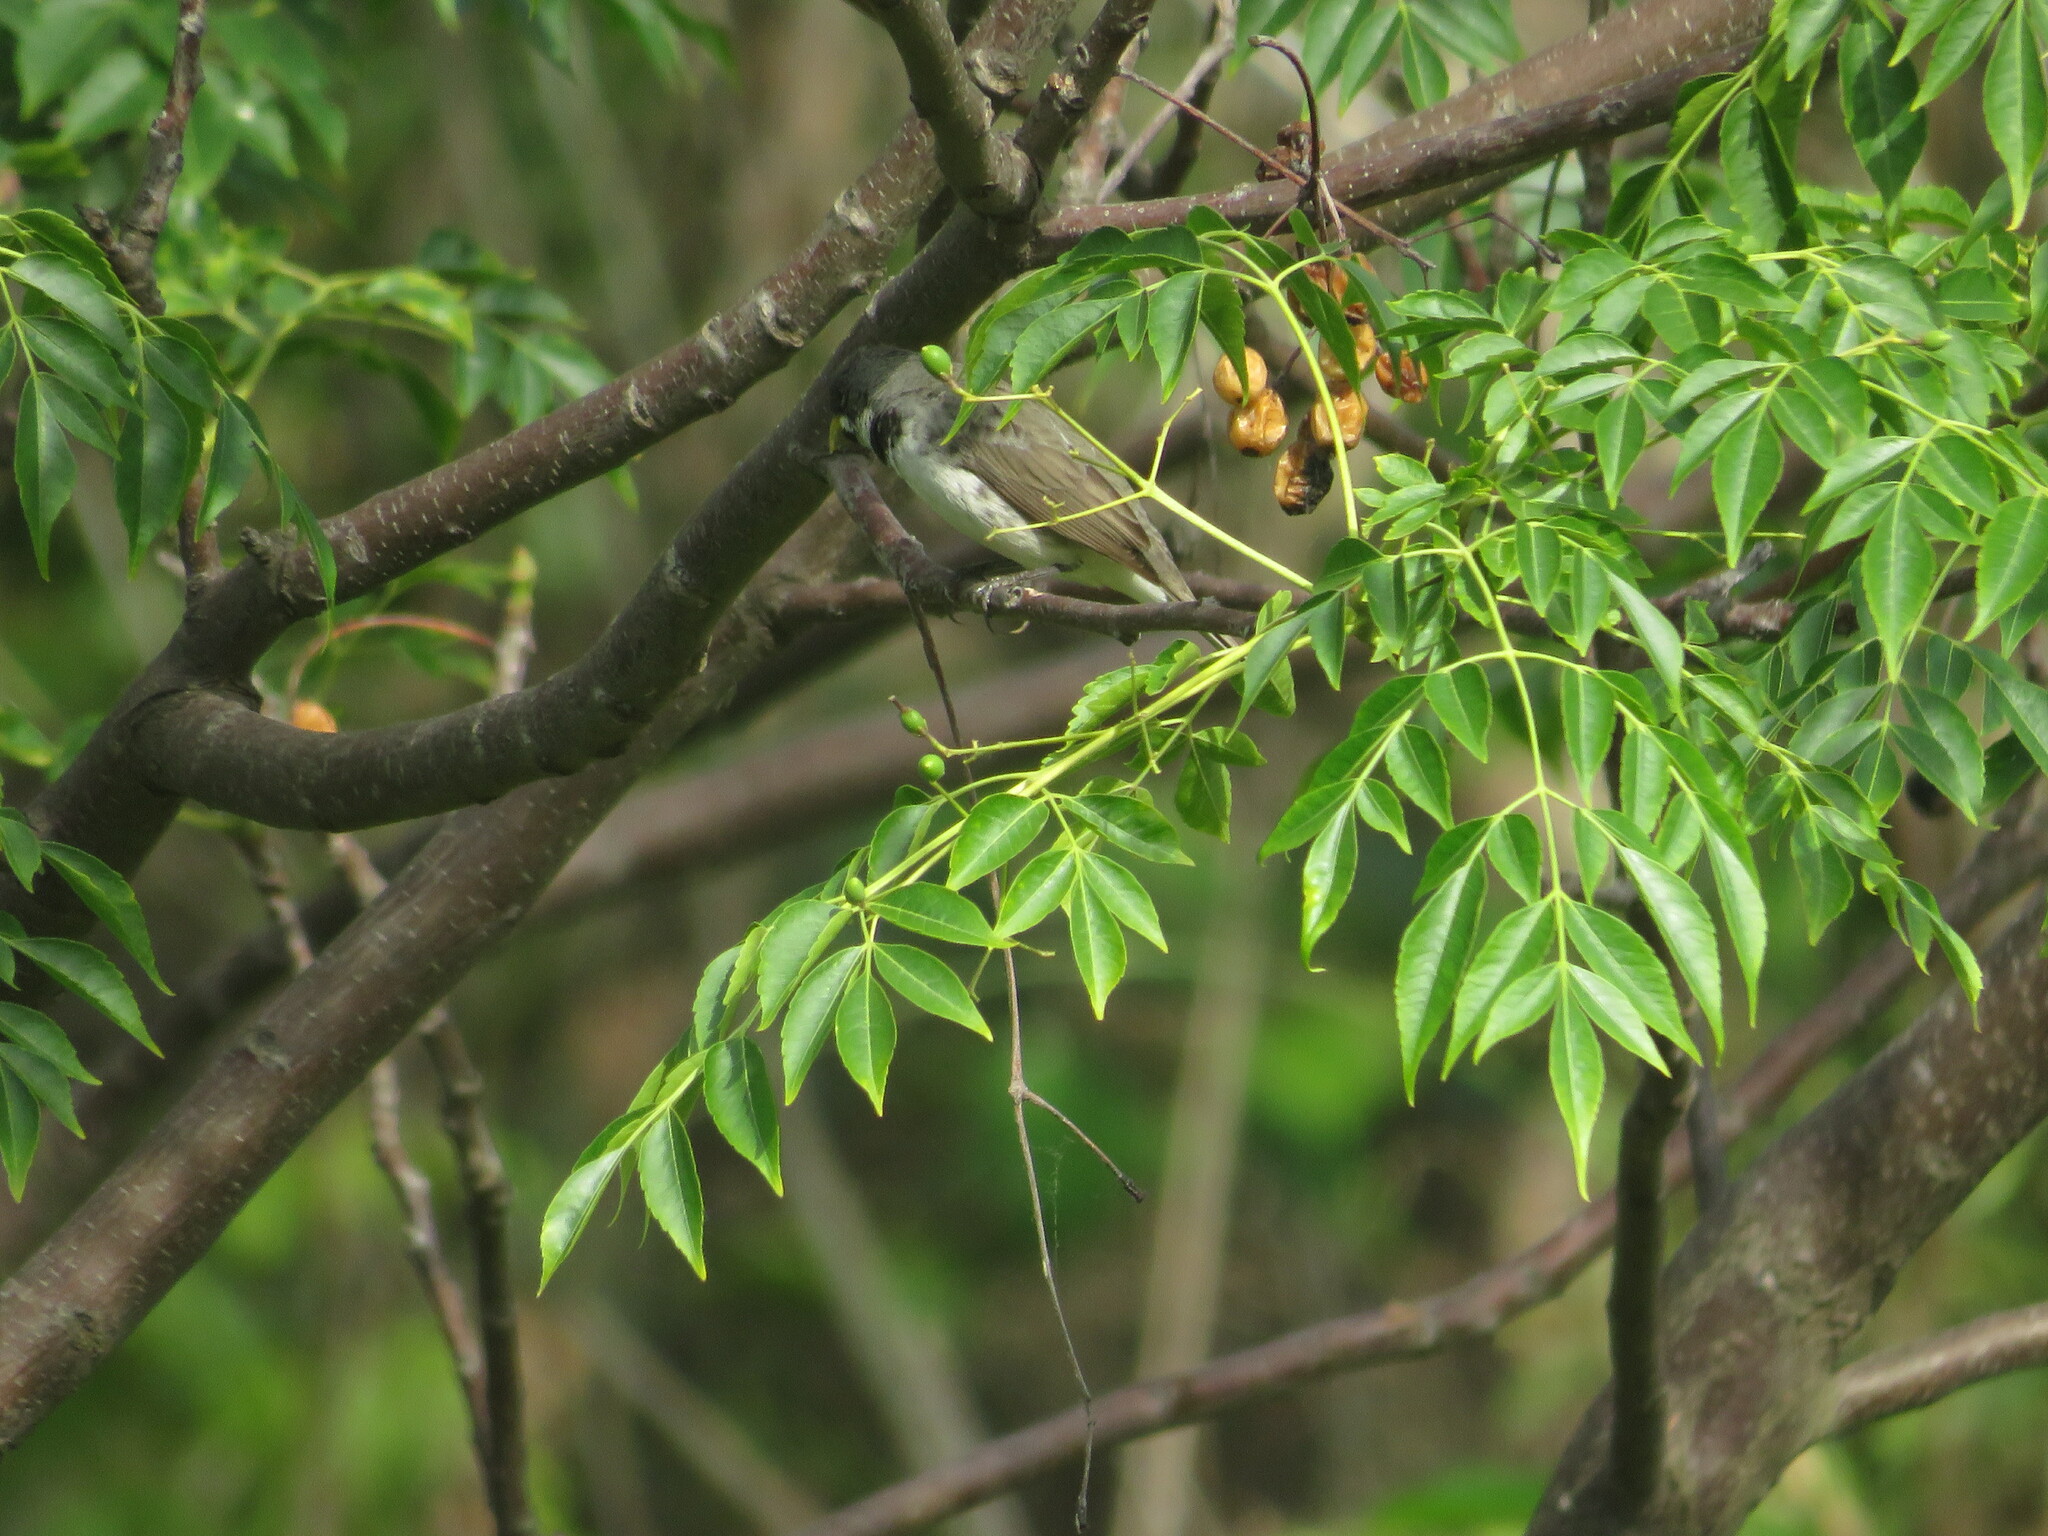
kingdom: Animalia
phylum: Chordata
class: Aves
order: Passeriformes
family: Thraupidae
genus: Sporophila
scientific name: Sporophila caerulescens
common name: Double-collared seedeater
